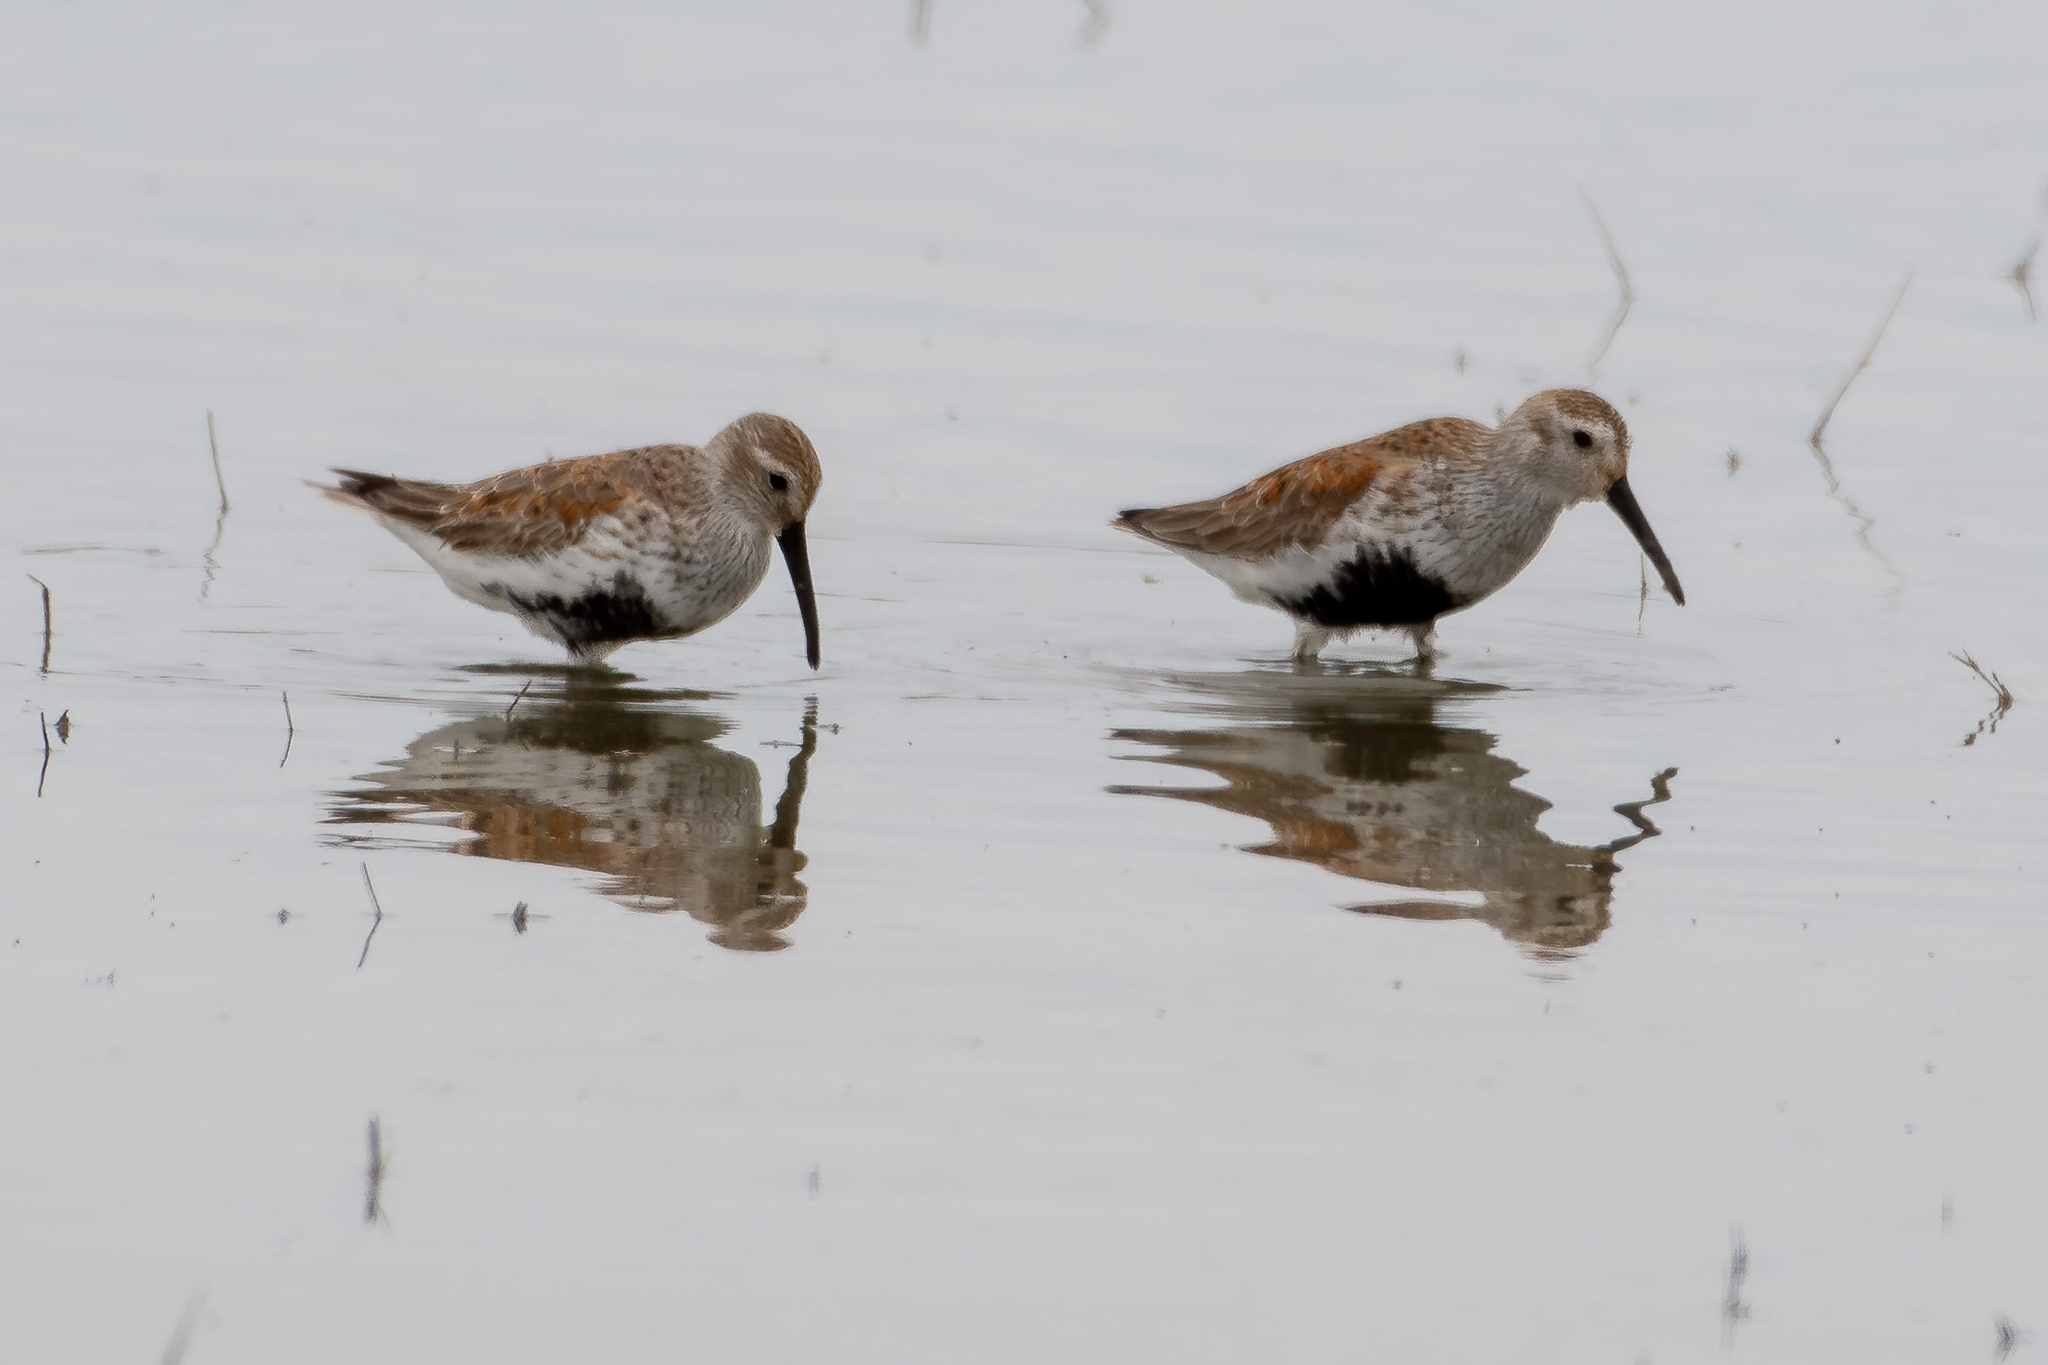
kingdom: Animalia
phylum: Chordata
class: Aves
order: Charadriiformes
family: Scolopacidae
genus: Calidris
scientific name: Calidris alpina
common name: Dunlin
